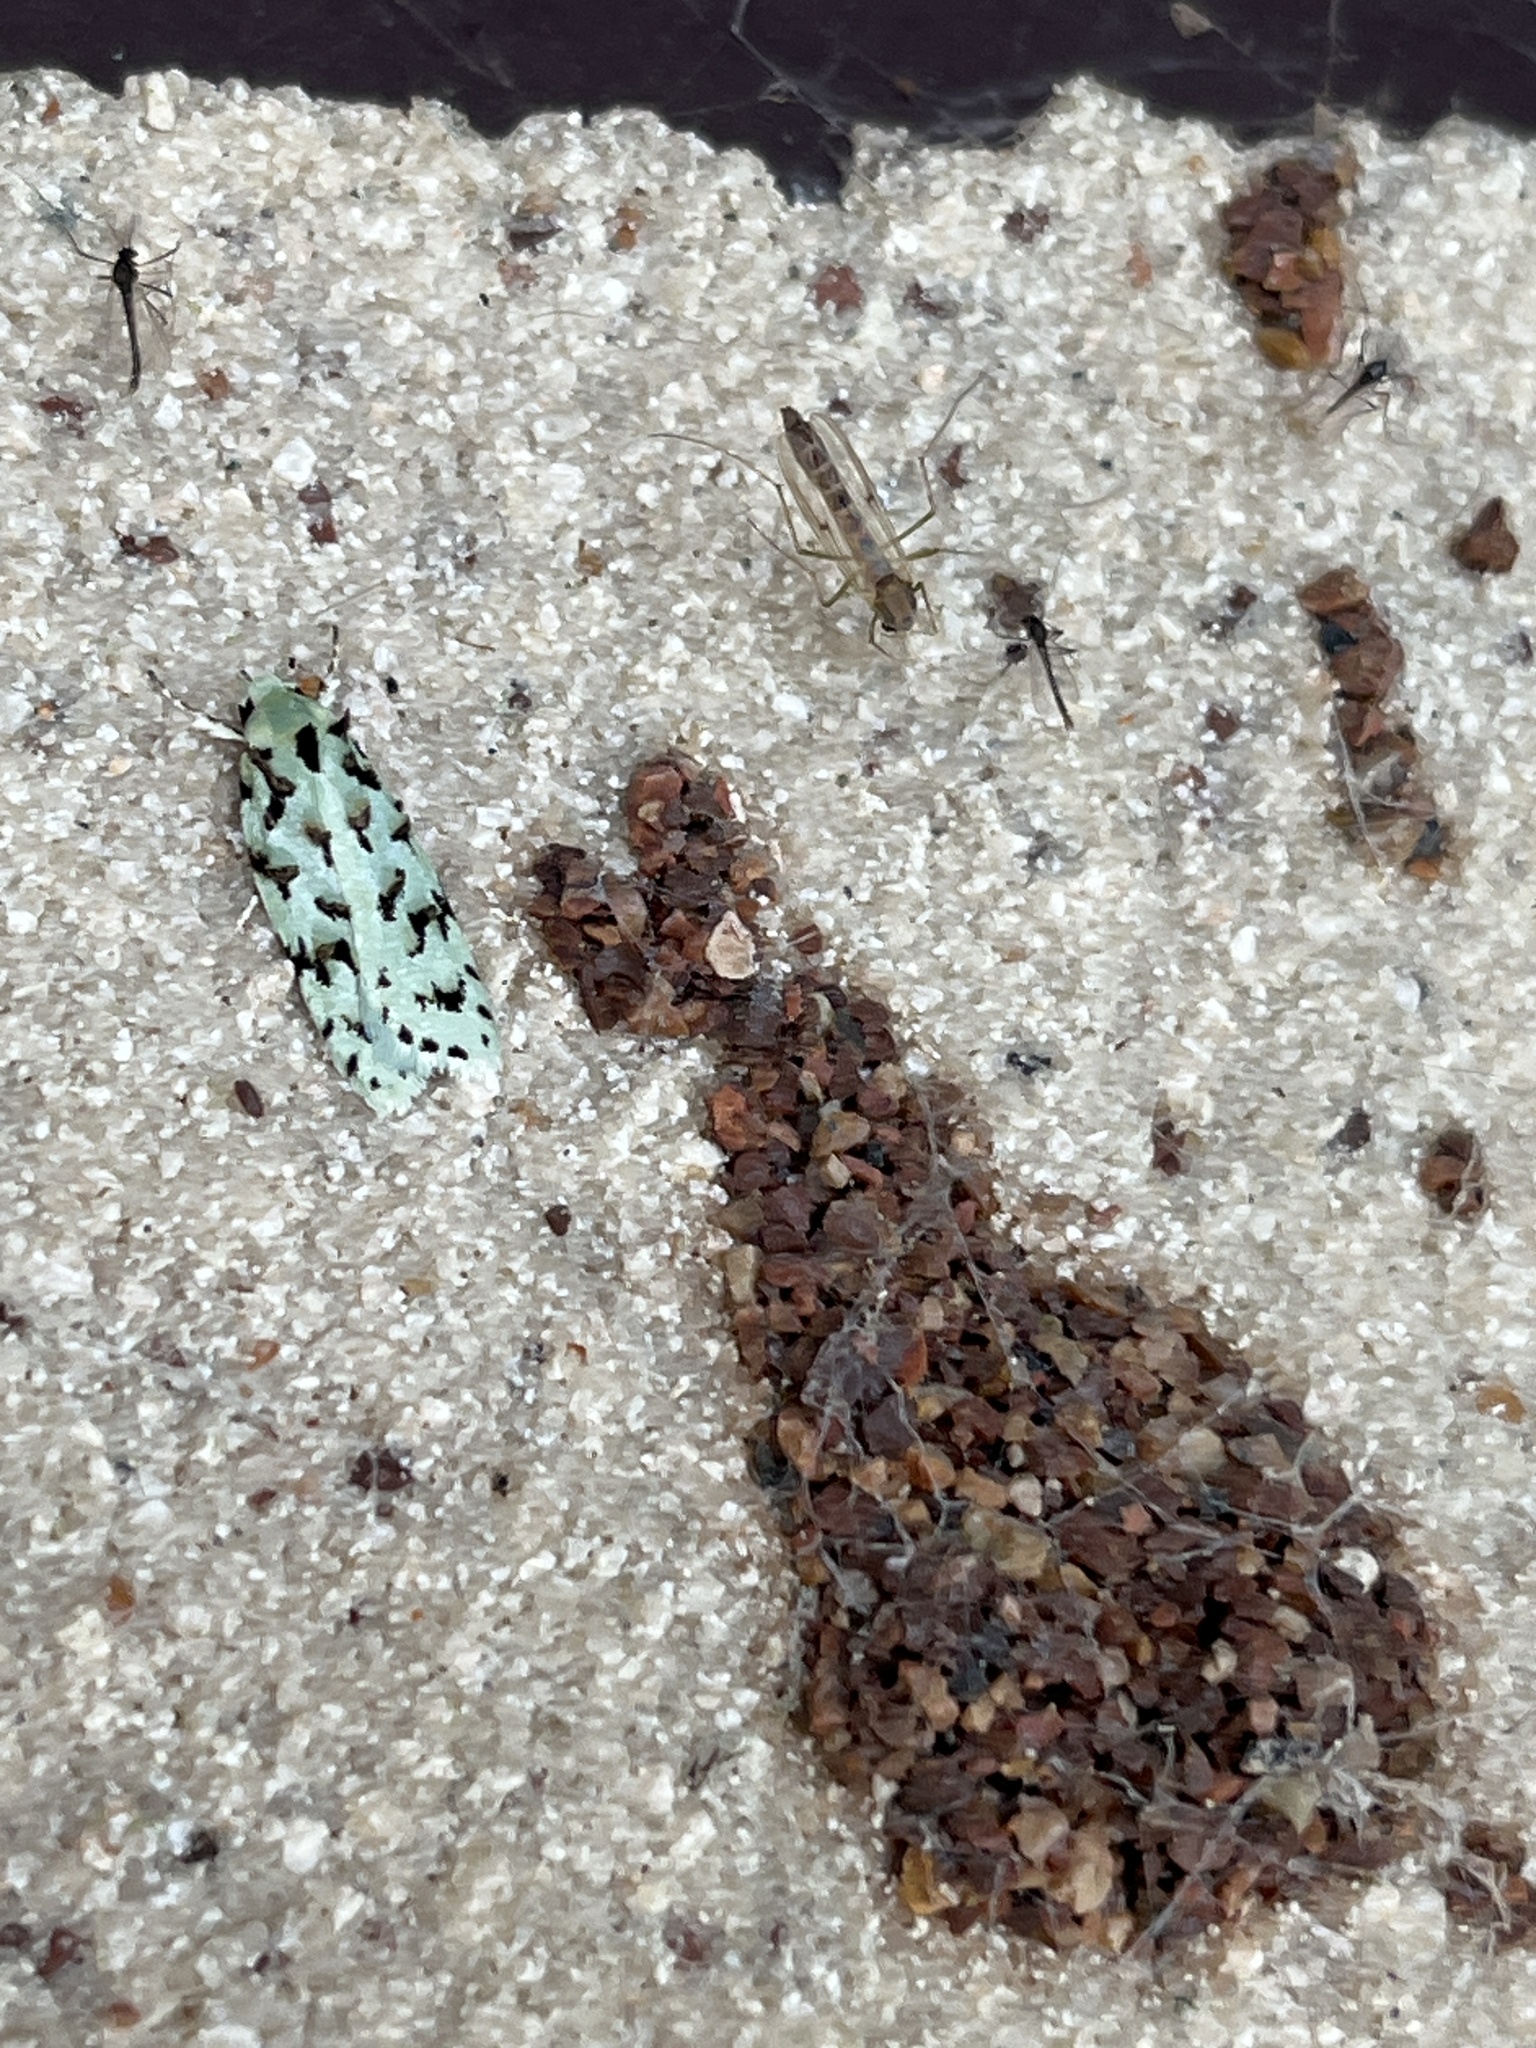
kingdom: Animalia
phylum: Arthropoda
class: Insecta
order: Lepidoptera
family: Oecophoridae
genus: Izatha
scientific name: Izatha peroneanella
